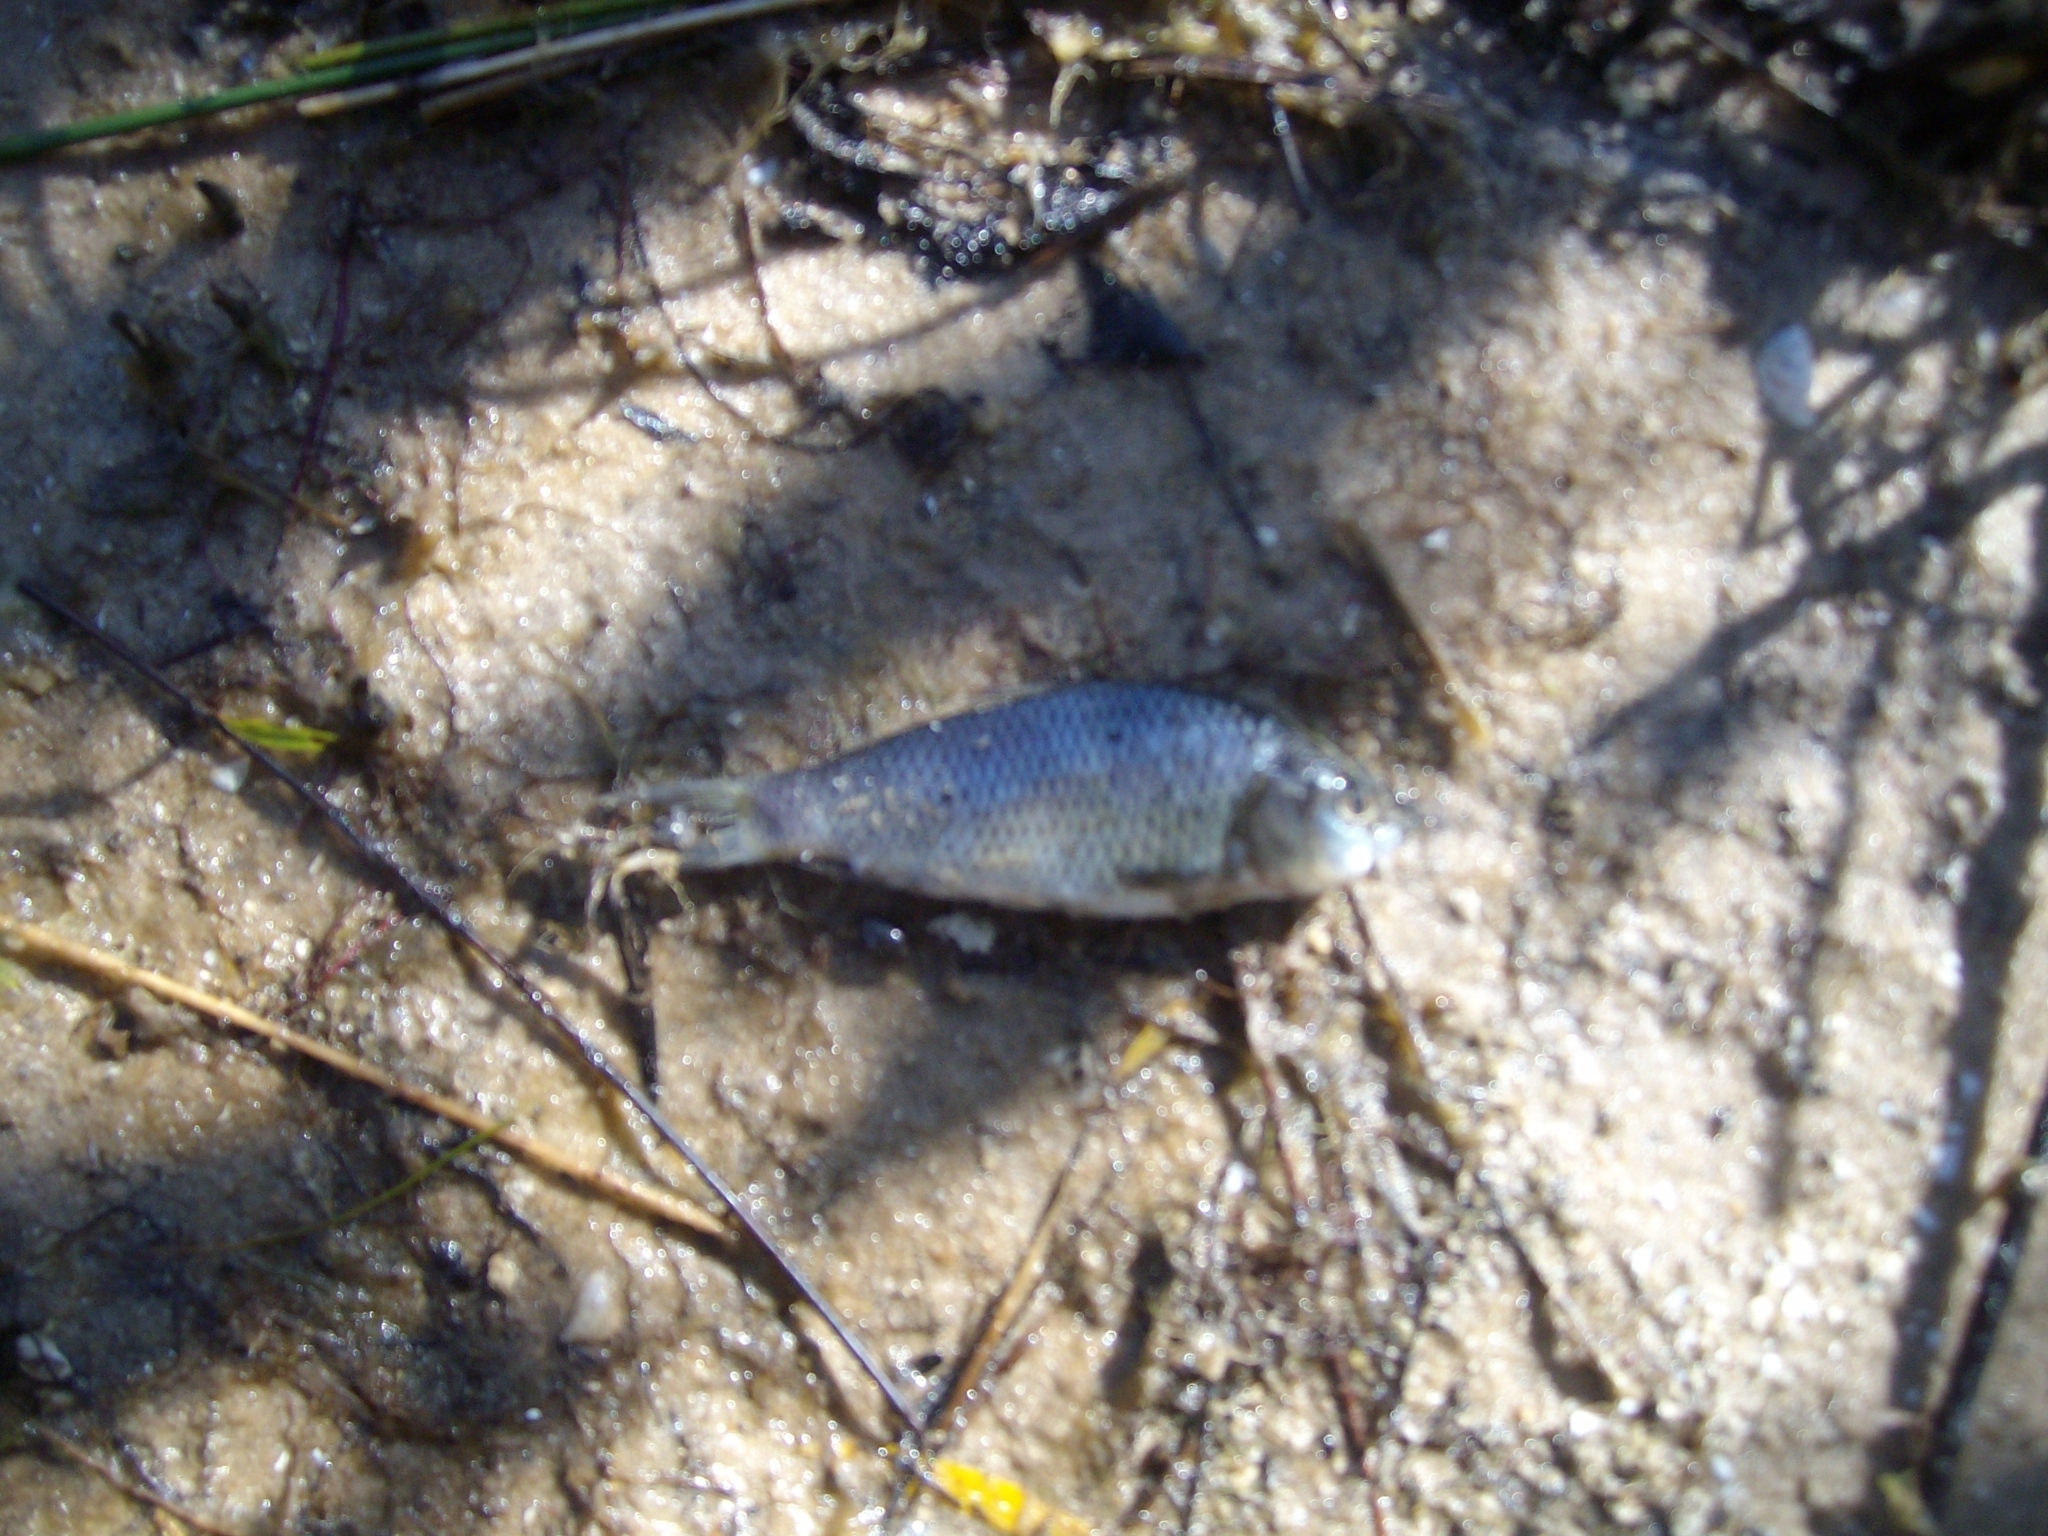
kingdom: Animalia
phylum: Chordata
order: Cypriniformes
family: Cyprinidae
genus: Cyprinus
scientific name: Cyprinus carpio
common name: Common carp
